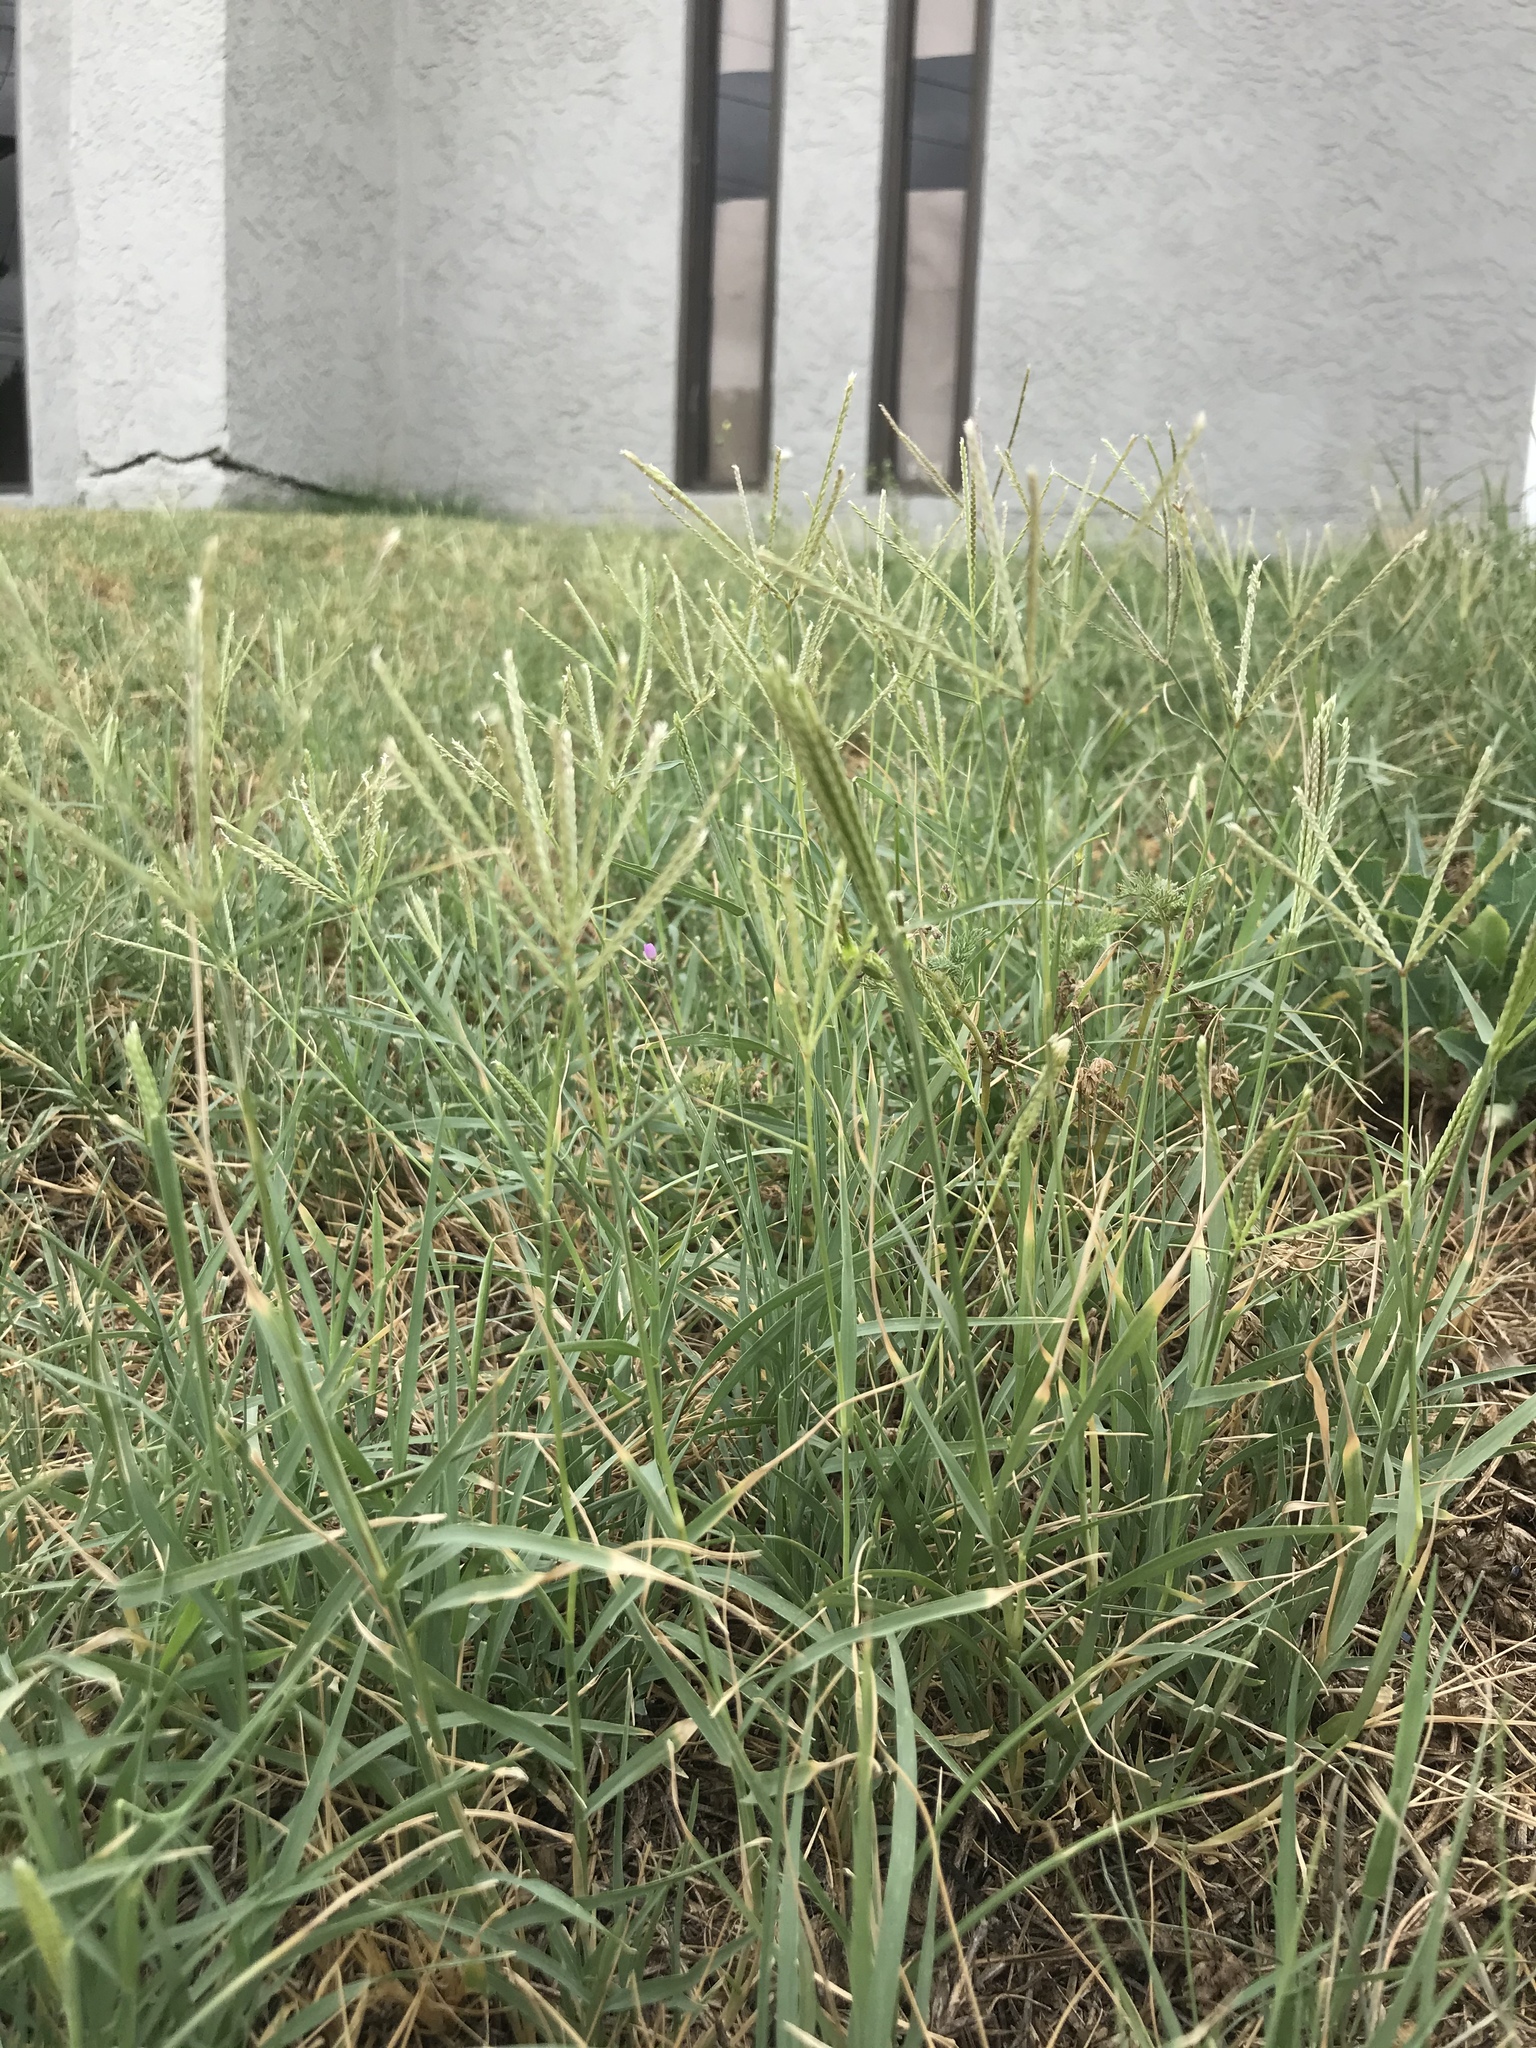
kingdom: Plantae
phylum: Tracheophyta
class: Liliopsida
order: Poales
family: Poaceae
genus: Cynodon
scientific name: Cynodon dactylon
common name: Bermuda grass
